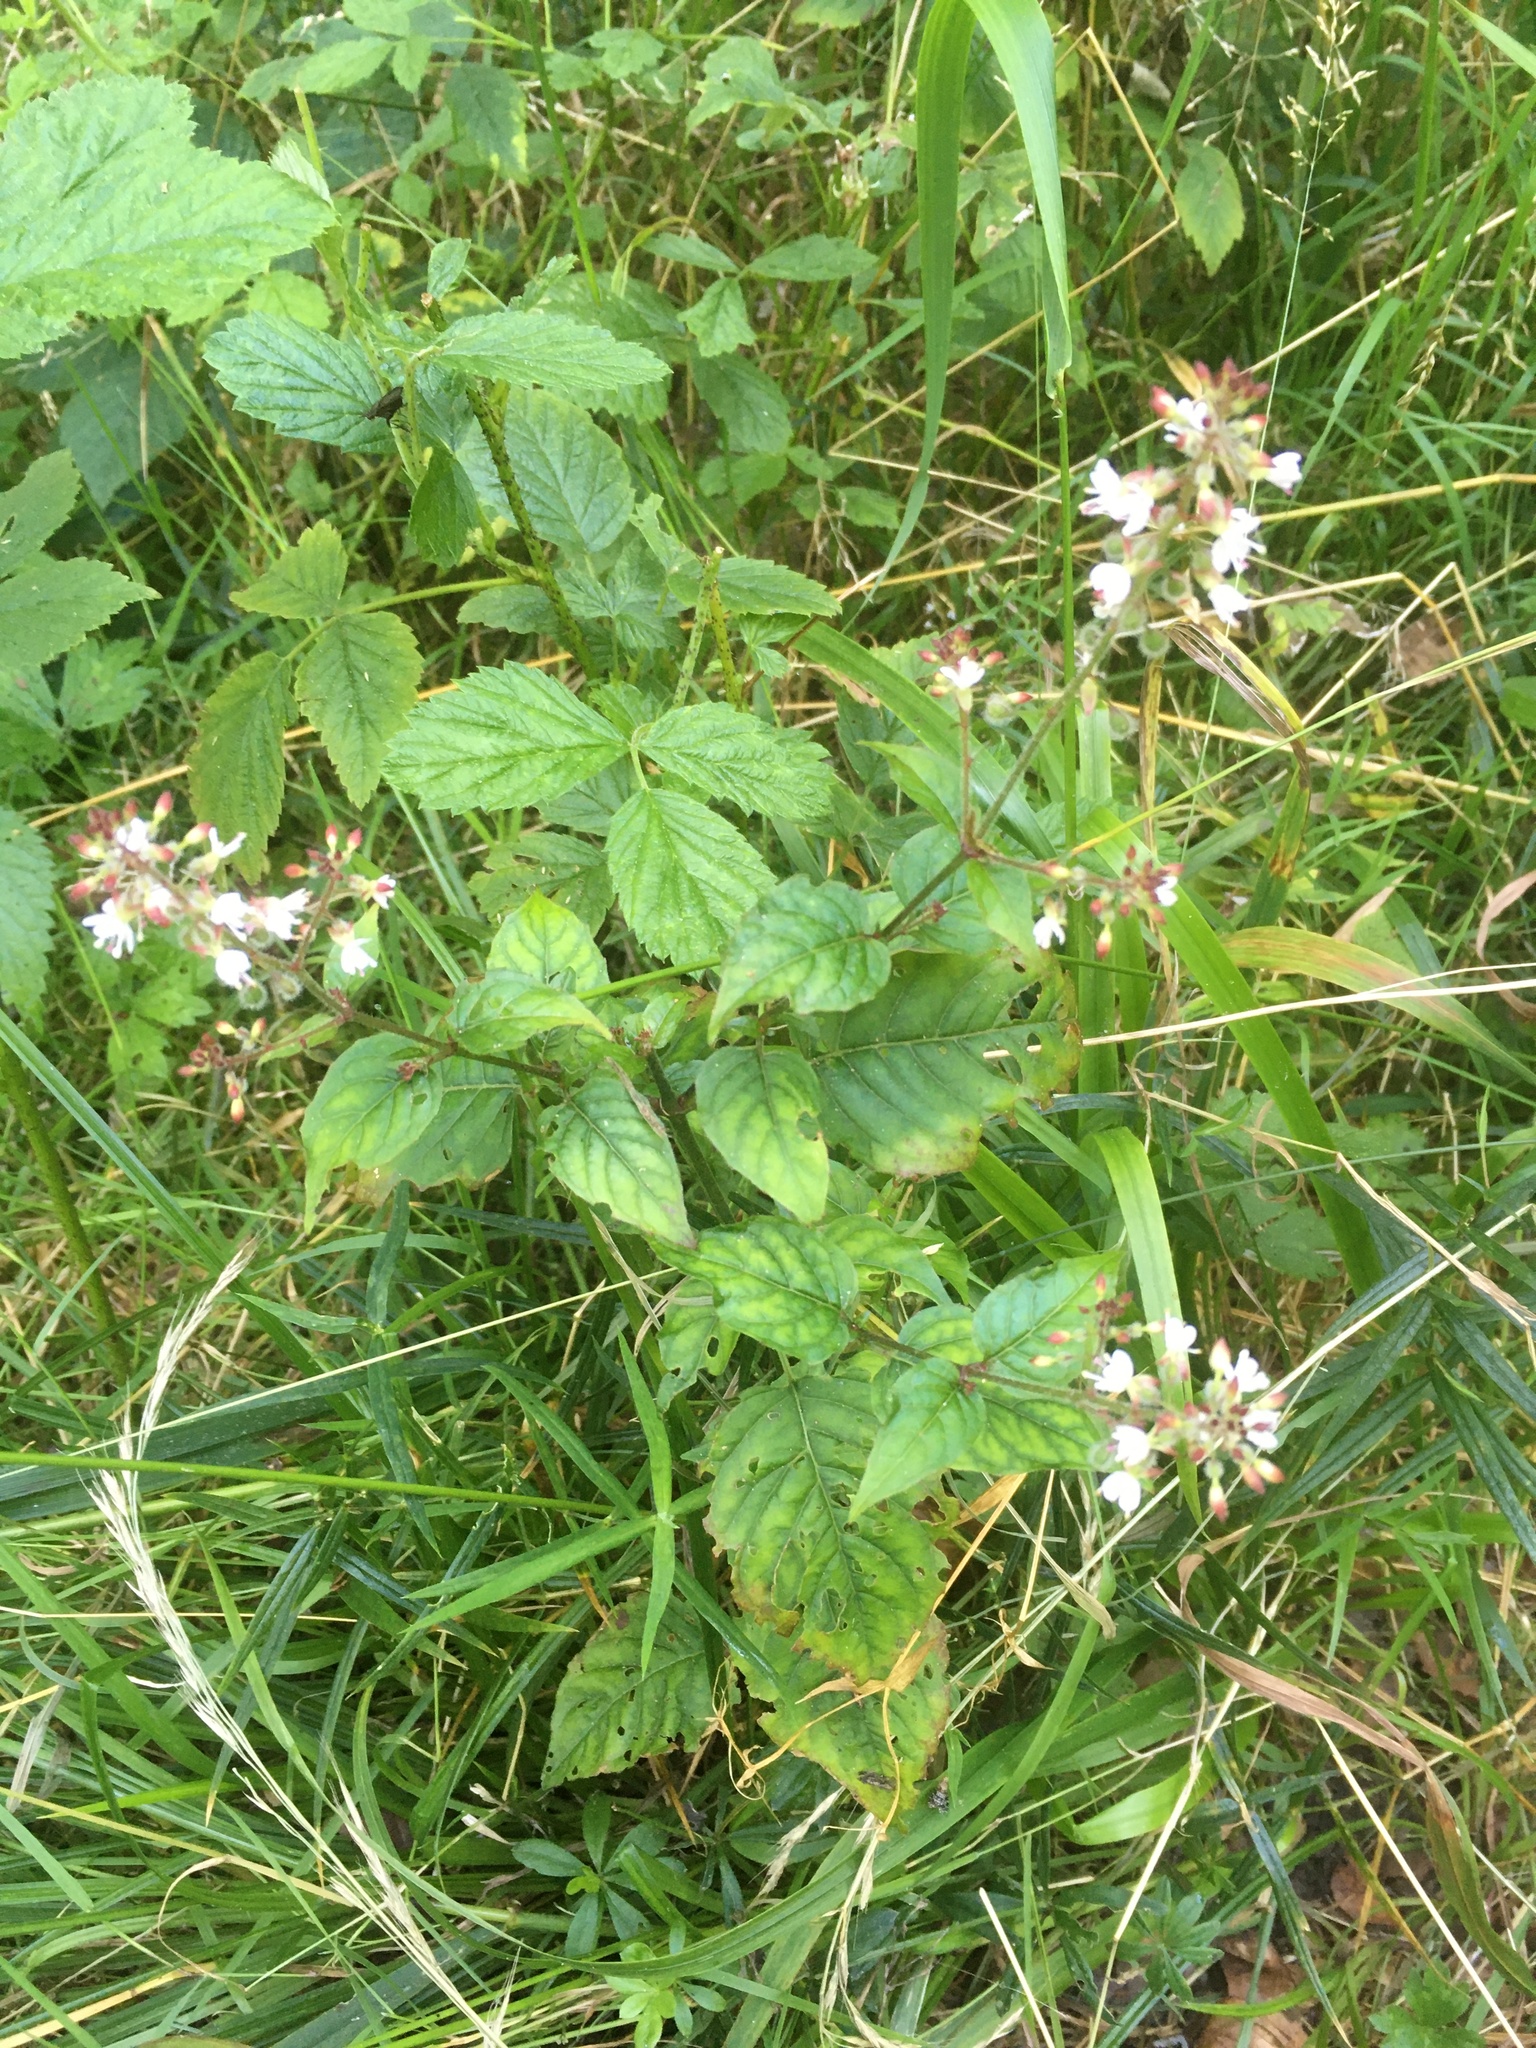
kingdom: Plantae
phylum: Tracheophyta
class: Magnoliopsida
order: Myrtales
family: Onagraceae
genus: Circaea
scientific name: Circaea lutetiana
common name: Enchanter's-nightshade
